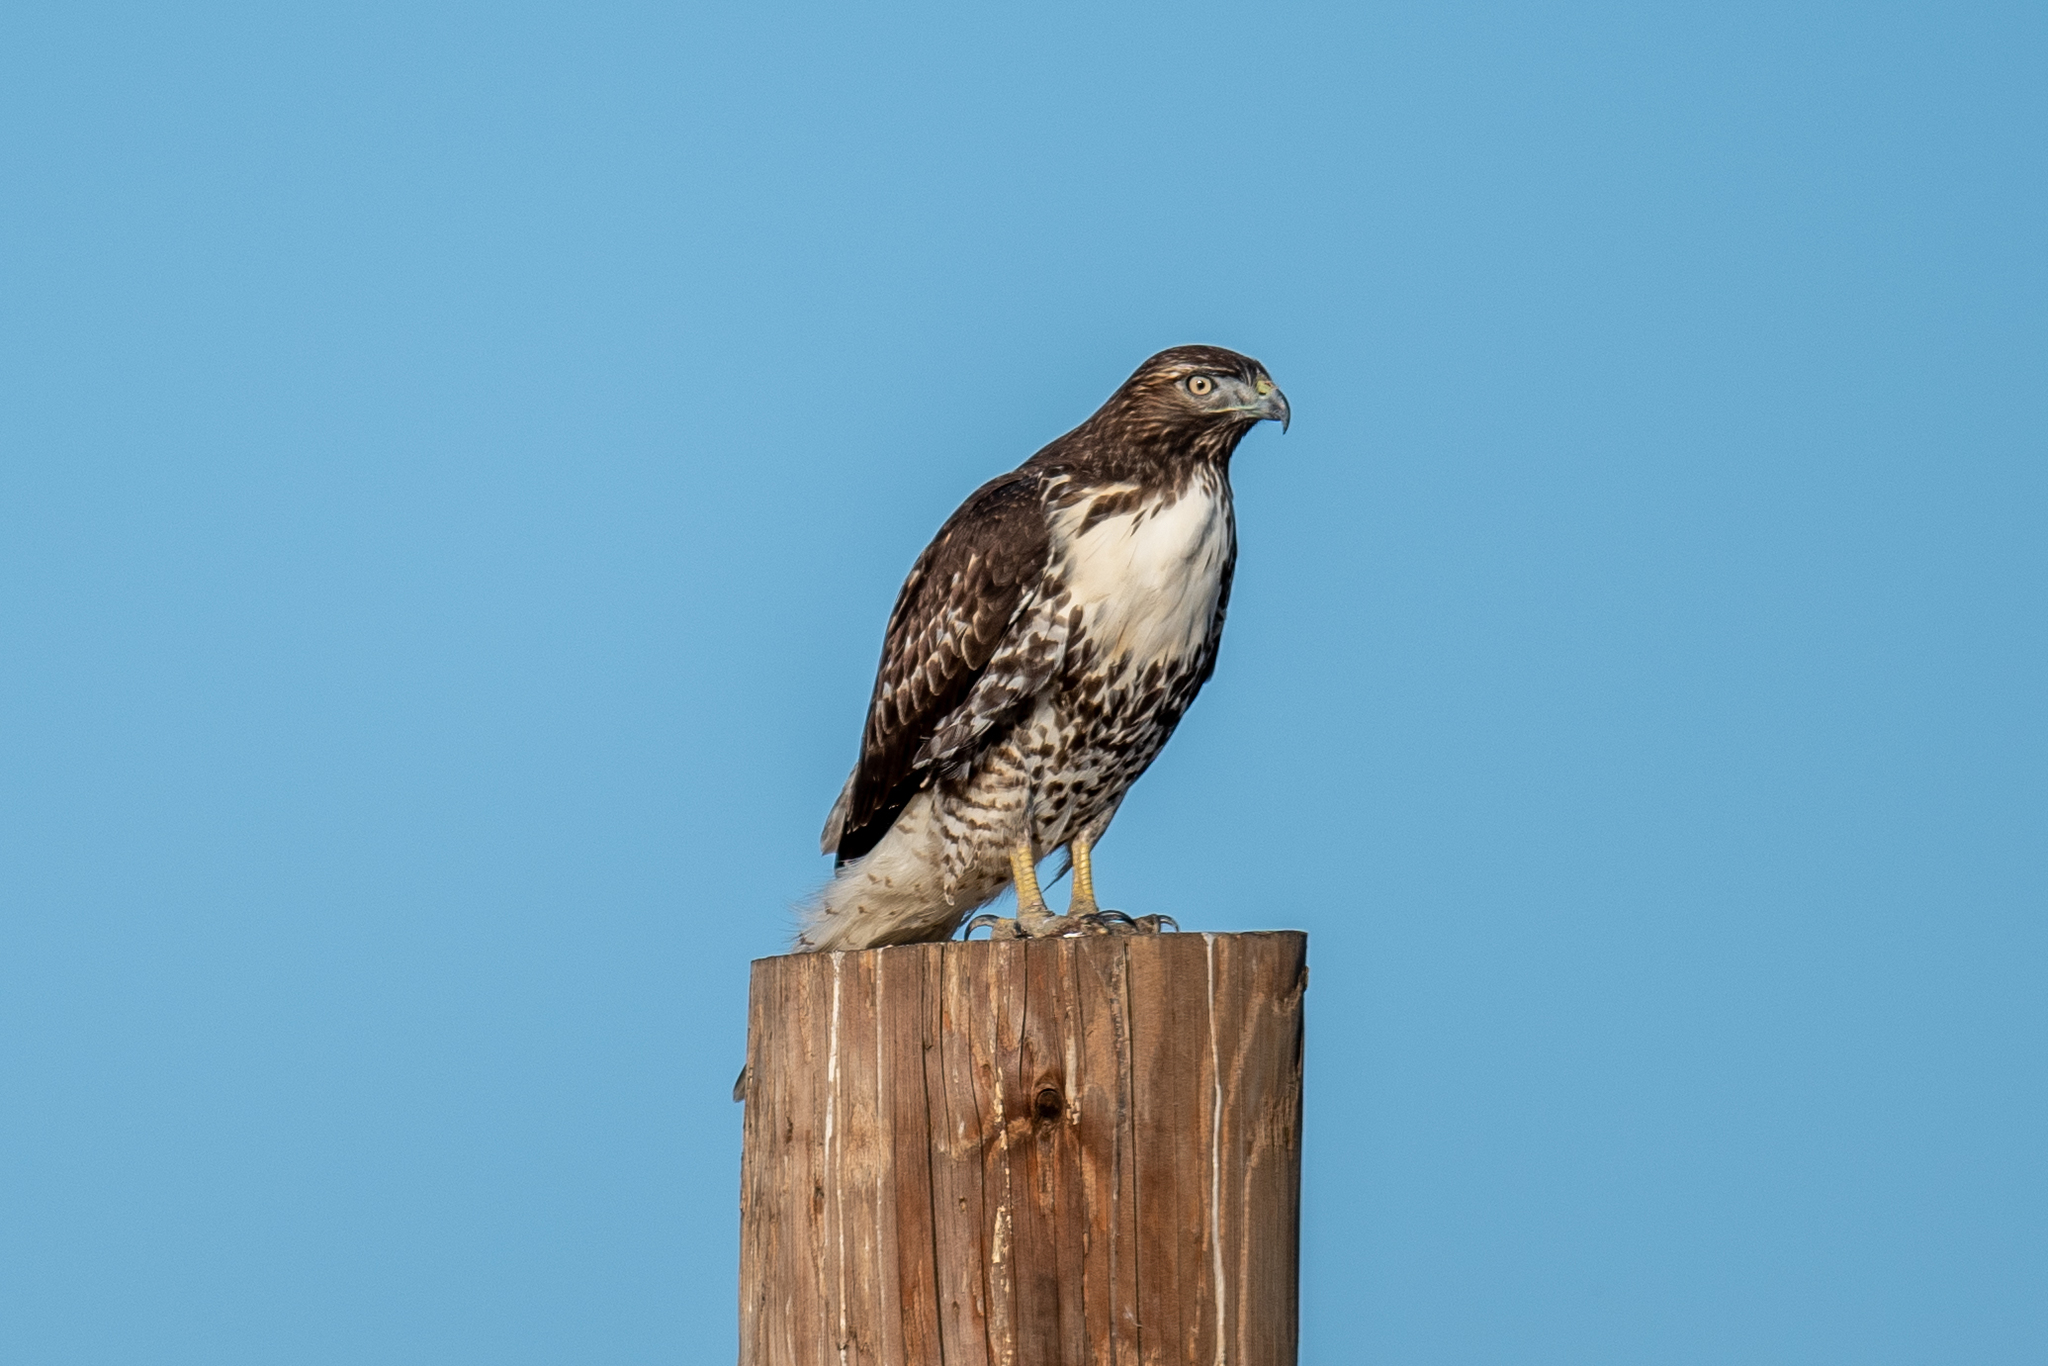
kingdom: Animalia
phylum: Chordata
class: Aves
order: Accipitriformes
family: Accipitridae
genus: Buteo
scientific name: Buteo jamaicensis
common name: Red-tailed hawk
